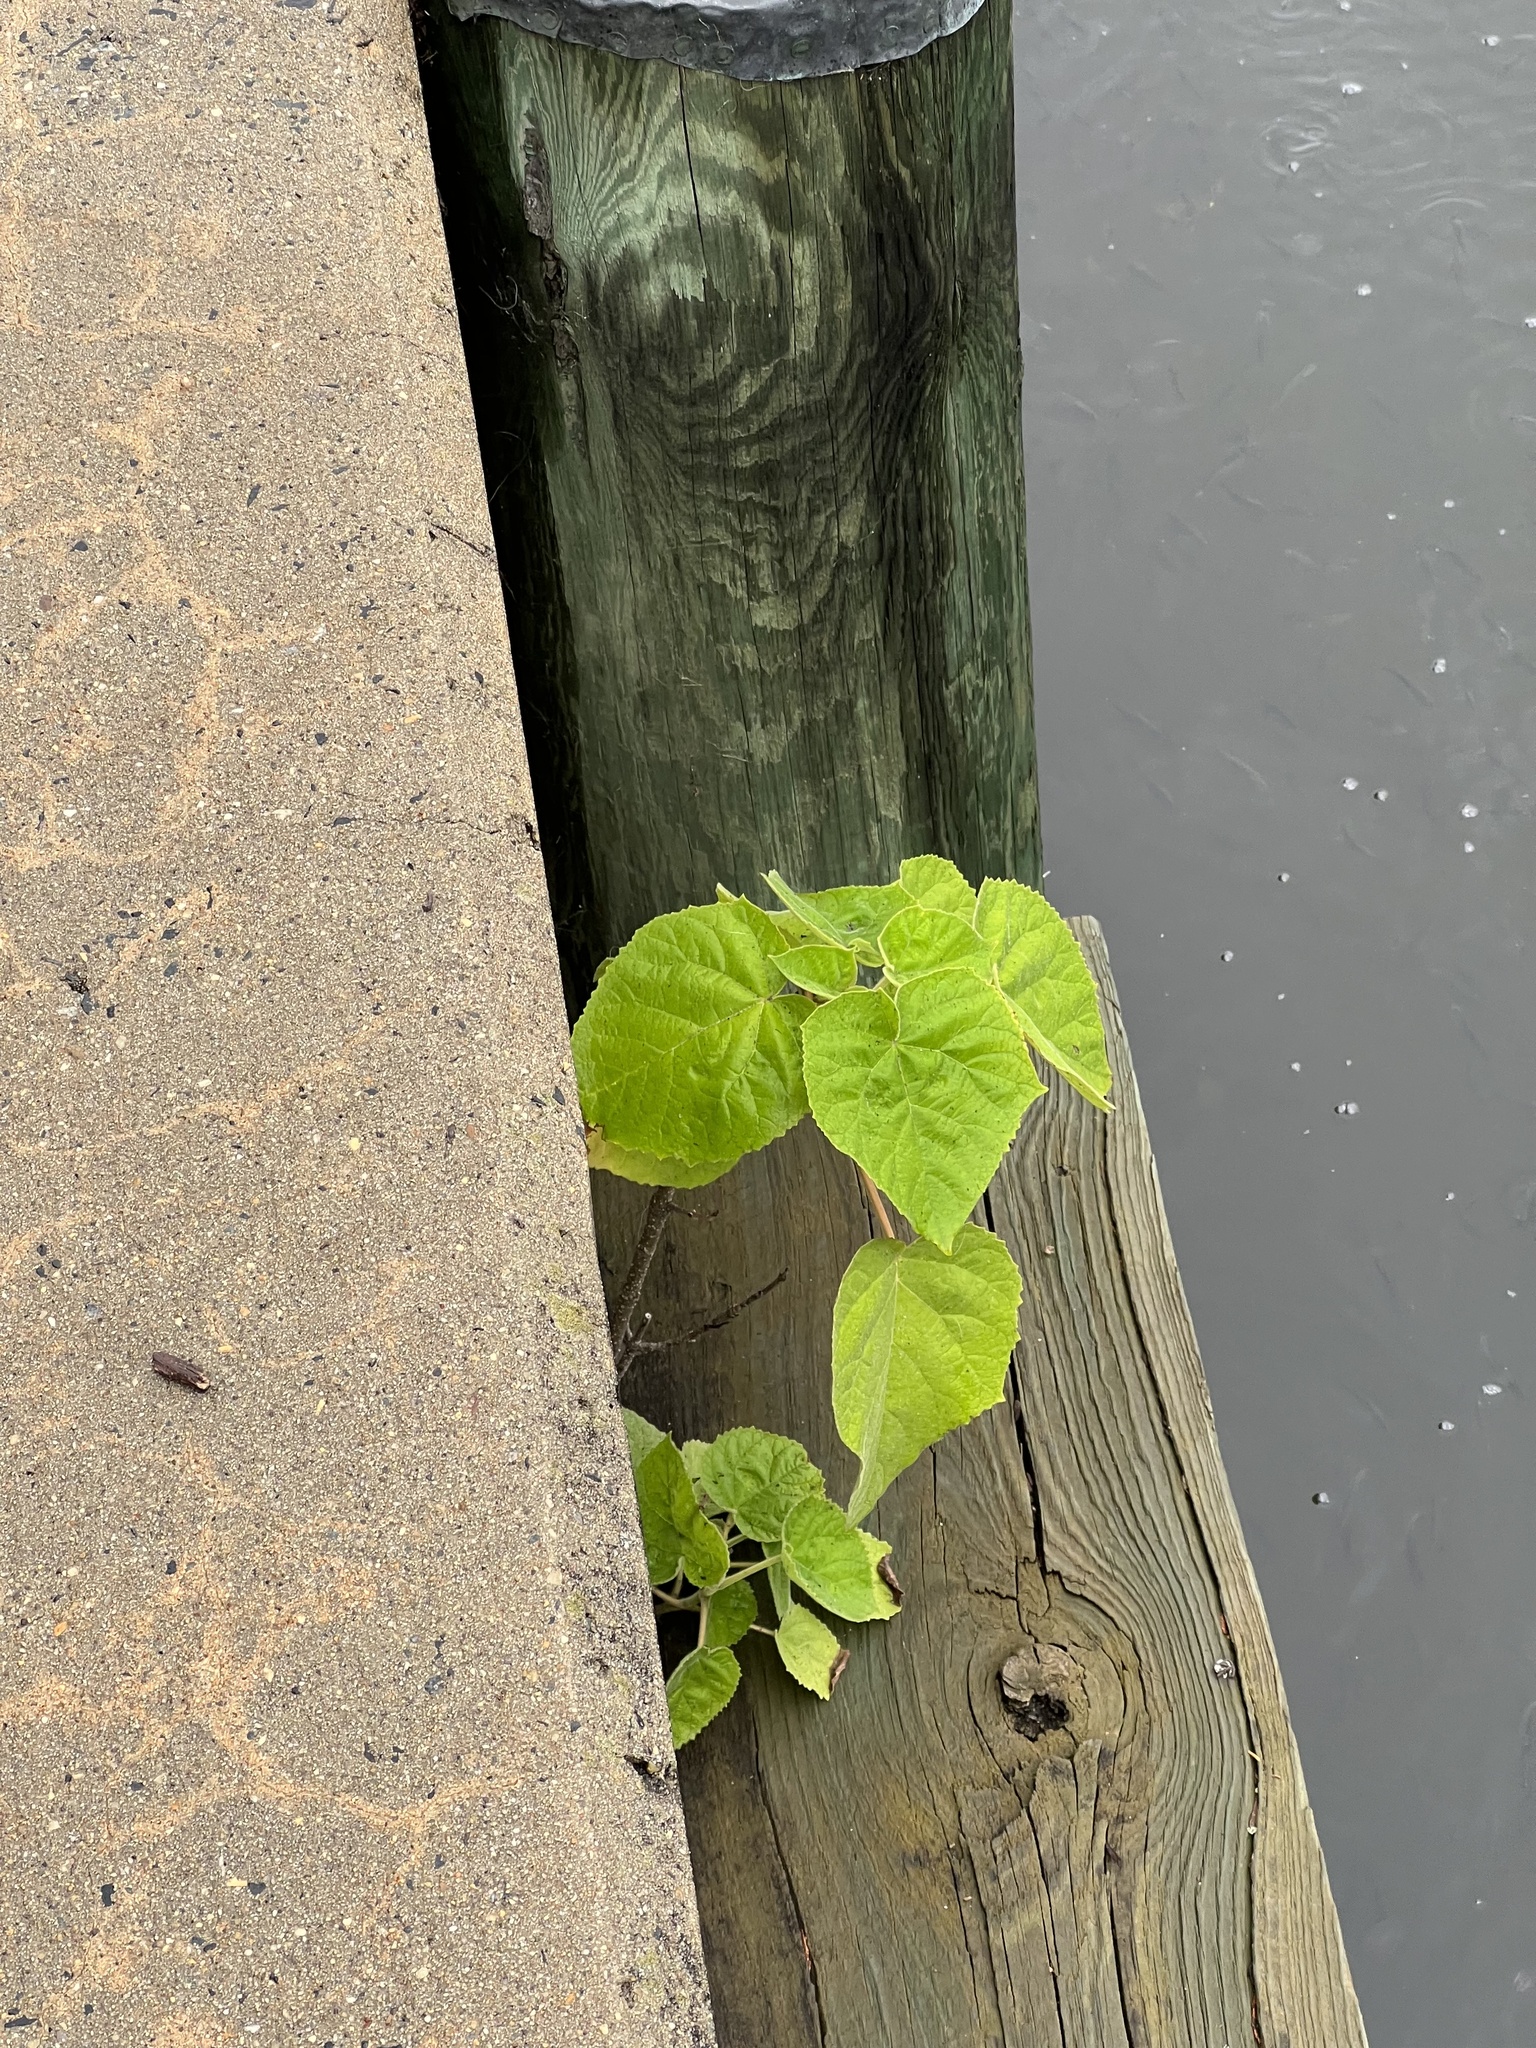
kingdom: Plantae
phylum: Tracheophyta
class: Magnoliopsida
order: Lamiales
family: Paulowniaceae
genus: Paulownia
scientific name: Paulownia tomentosa
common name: Foxglove-tree
